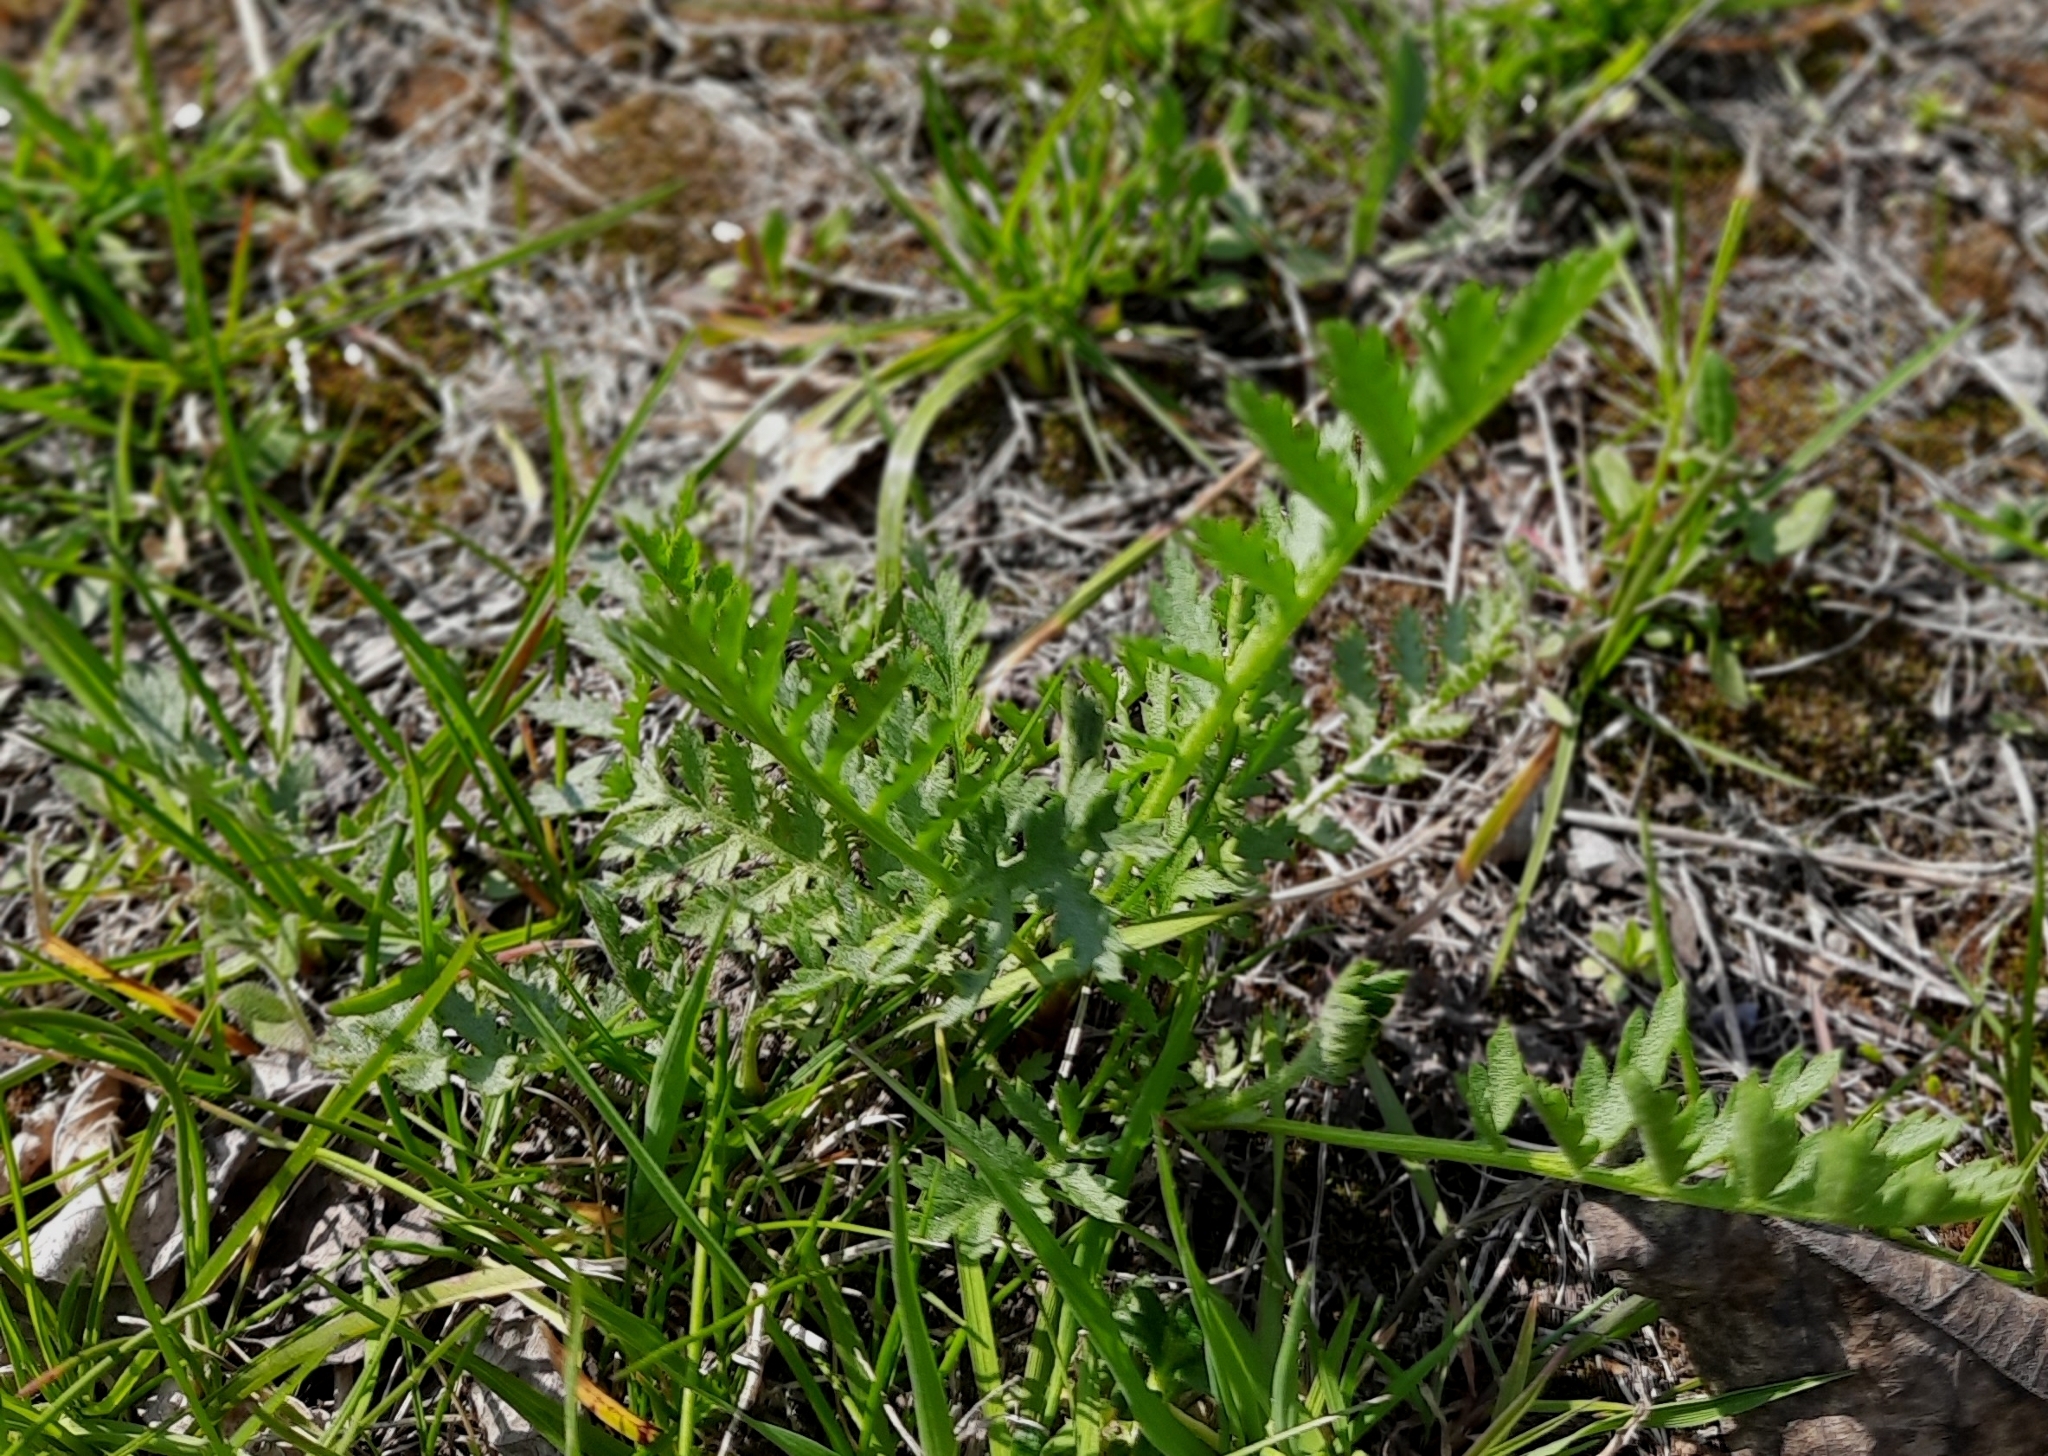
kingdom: Plantae
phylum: Tracheophyta
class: Magnoliopsida
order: Asterales
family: Asteraceae
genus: Tanacetum
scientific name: Tanacetum vulgare
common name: Common tansy
